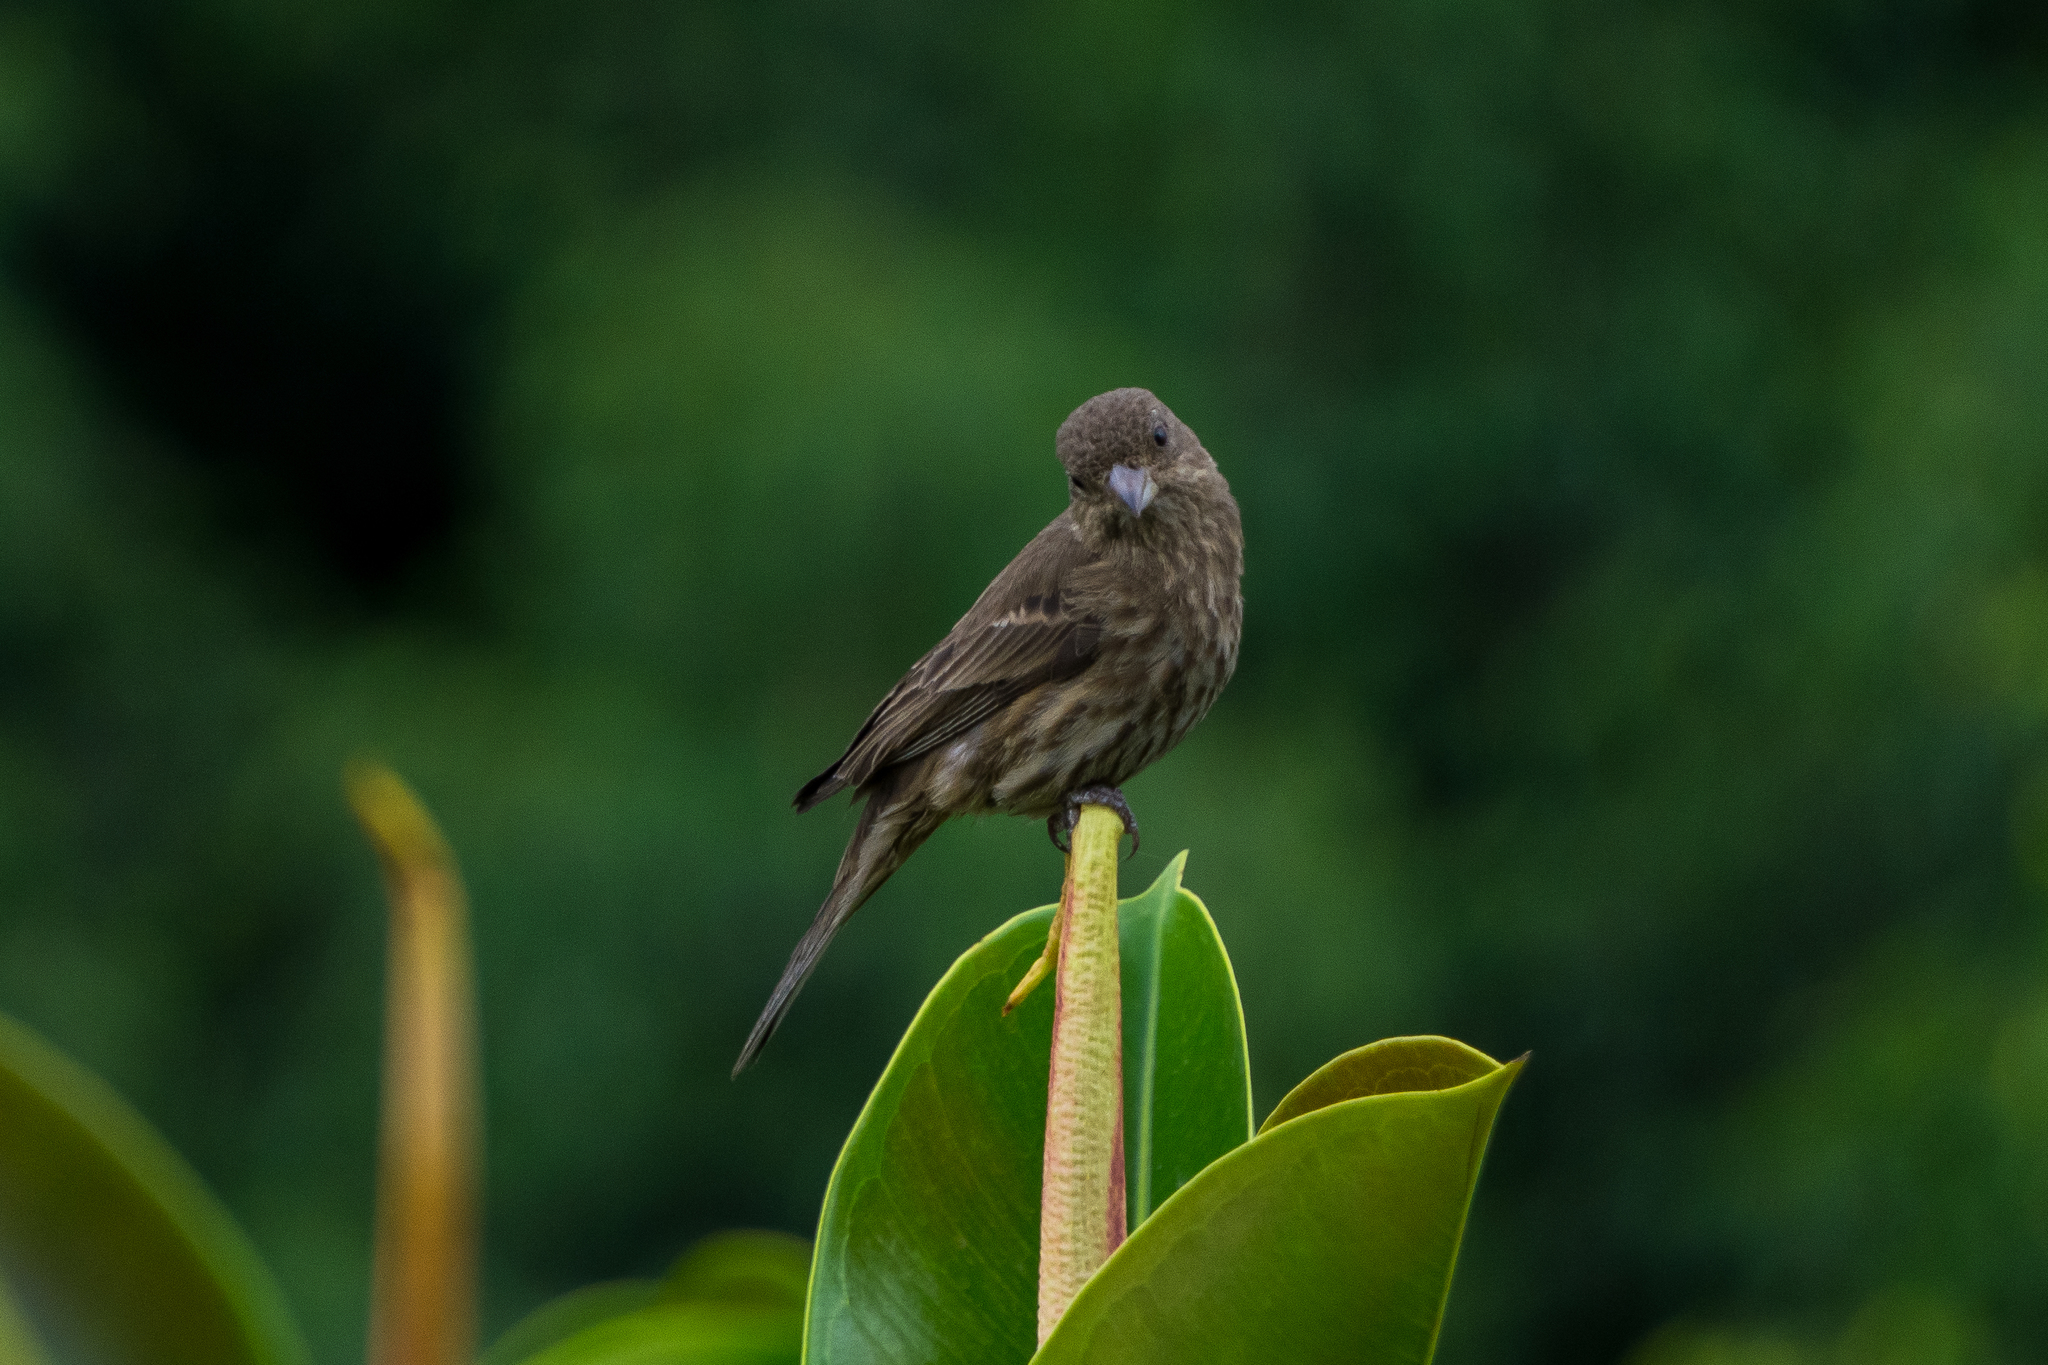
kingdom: Animalia
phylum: Chordata
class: Aves
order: Passeriformes
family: Fringillidae
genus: Haemorhous
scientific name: Haemorhous mexicanus
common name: House finch
